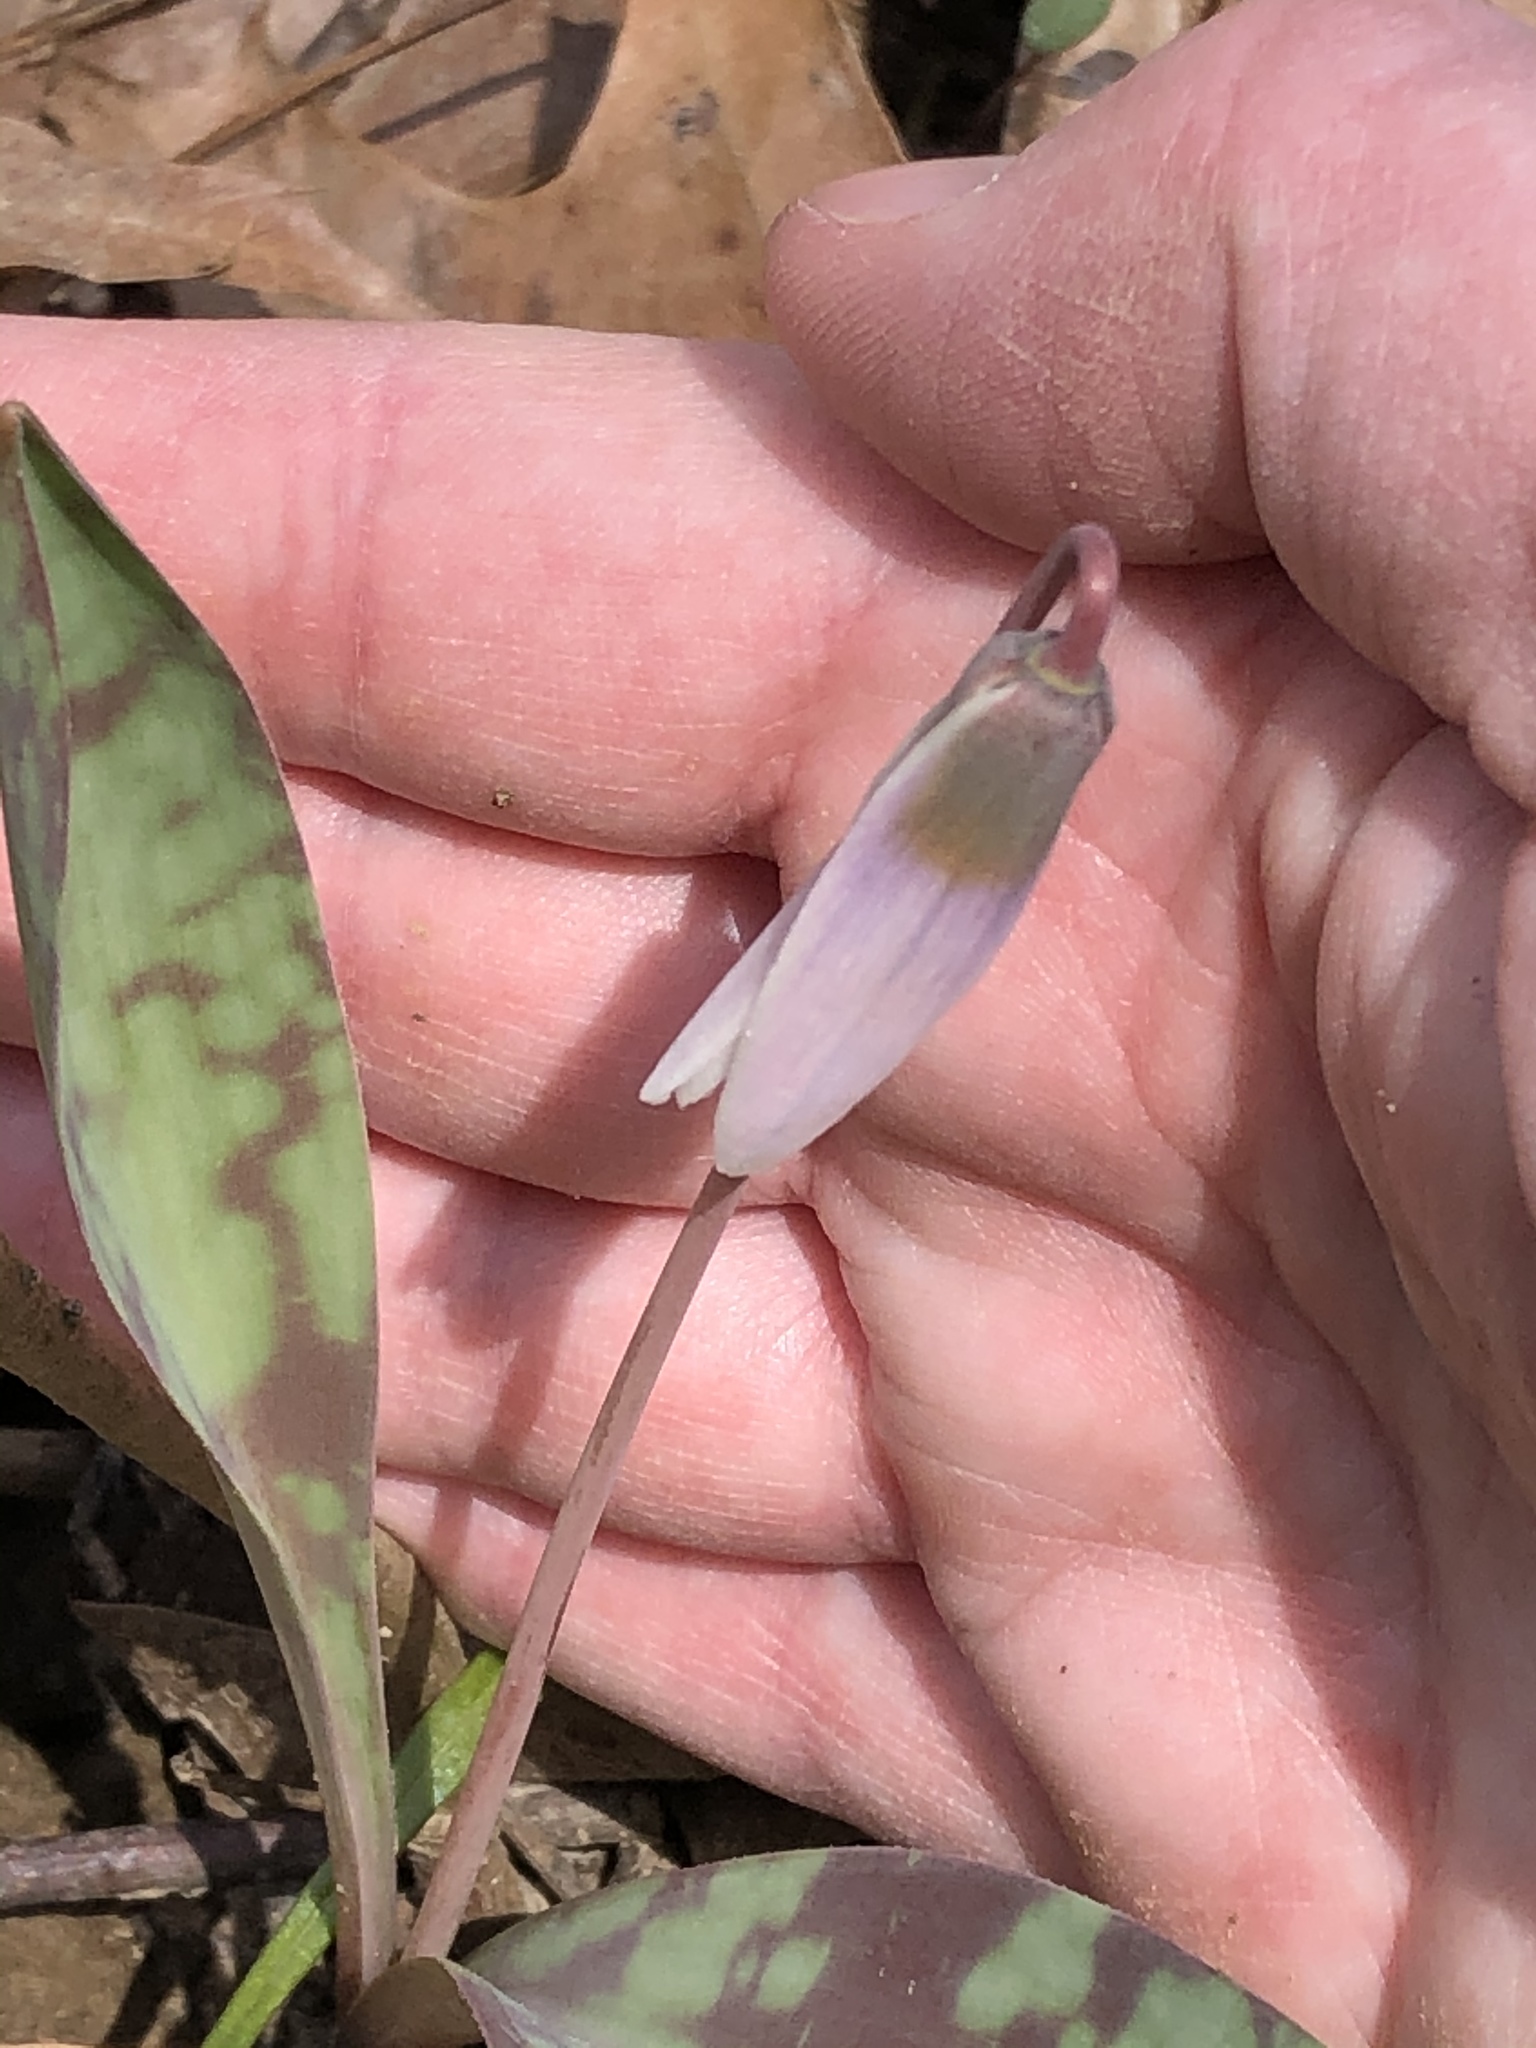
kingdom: Plantae
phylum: Tracheophyta
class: Liliopsida
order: Liliales
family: Liliaceae
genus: Erythronium
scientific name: Erythronium albidum
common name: White trout-lily
